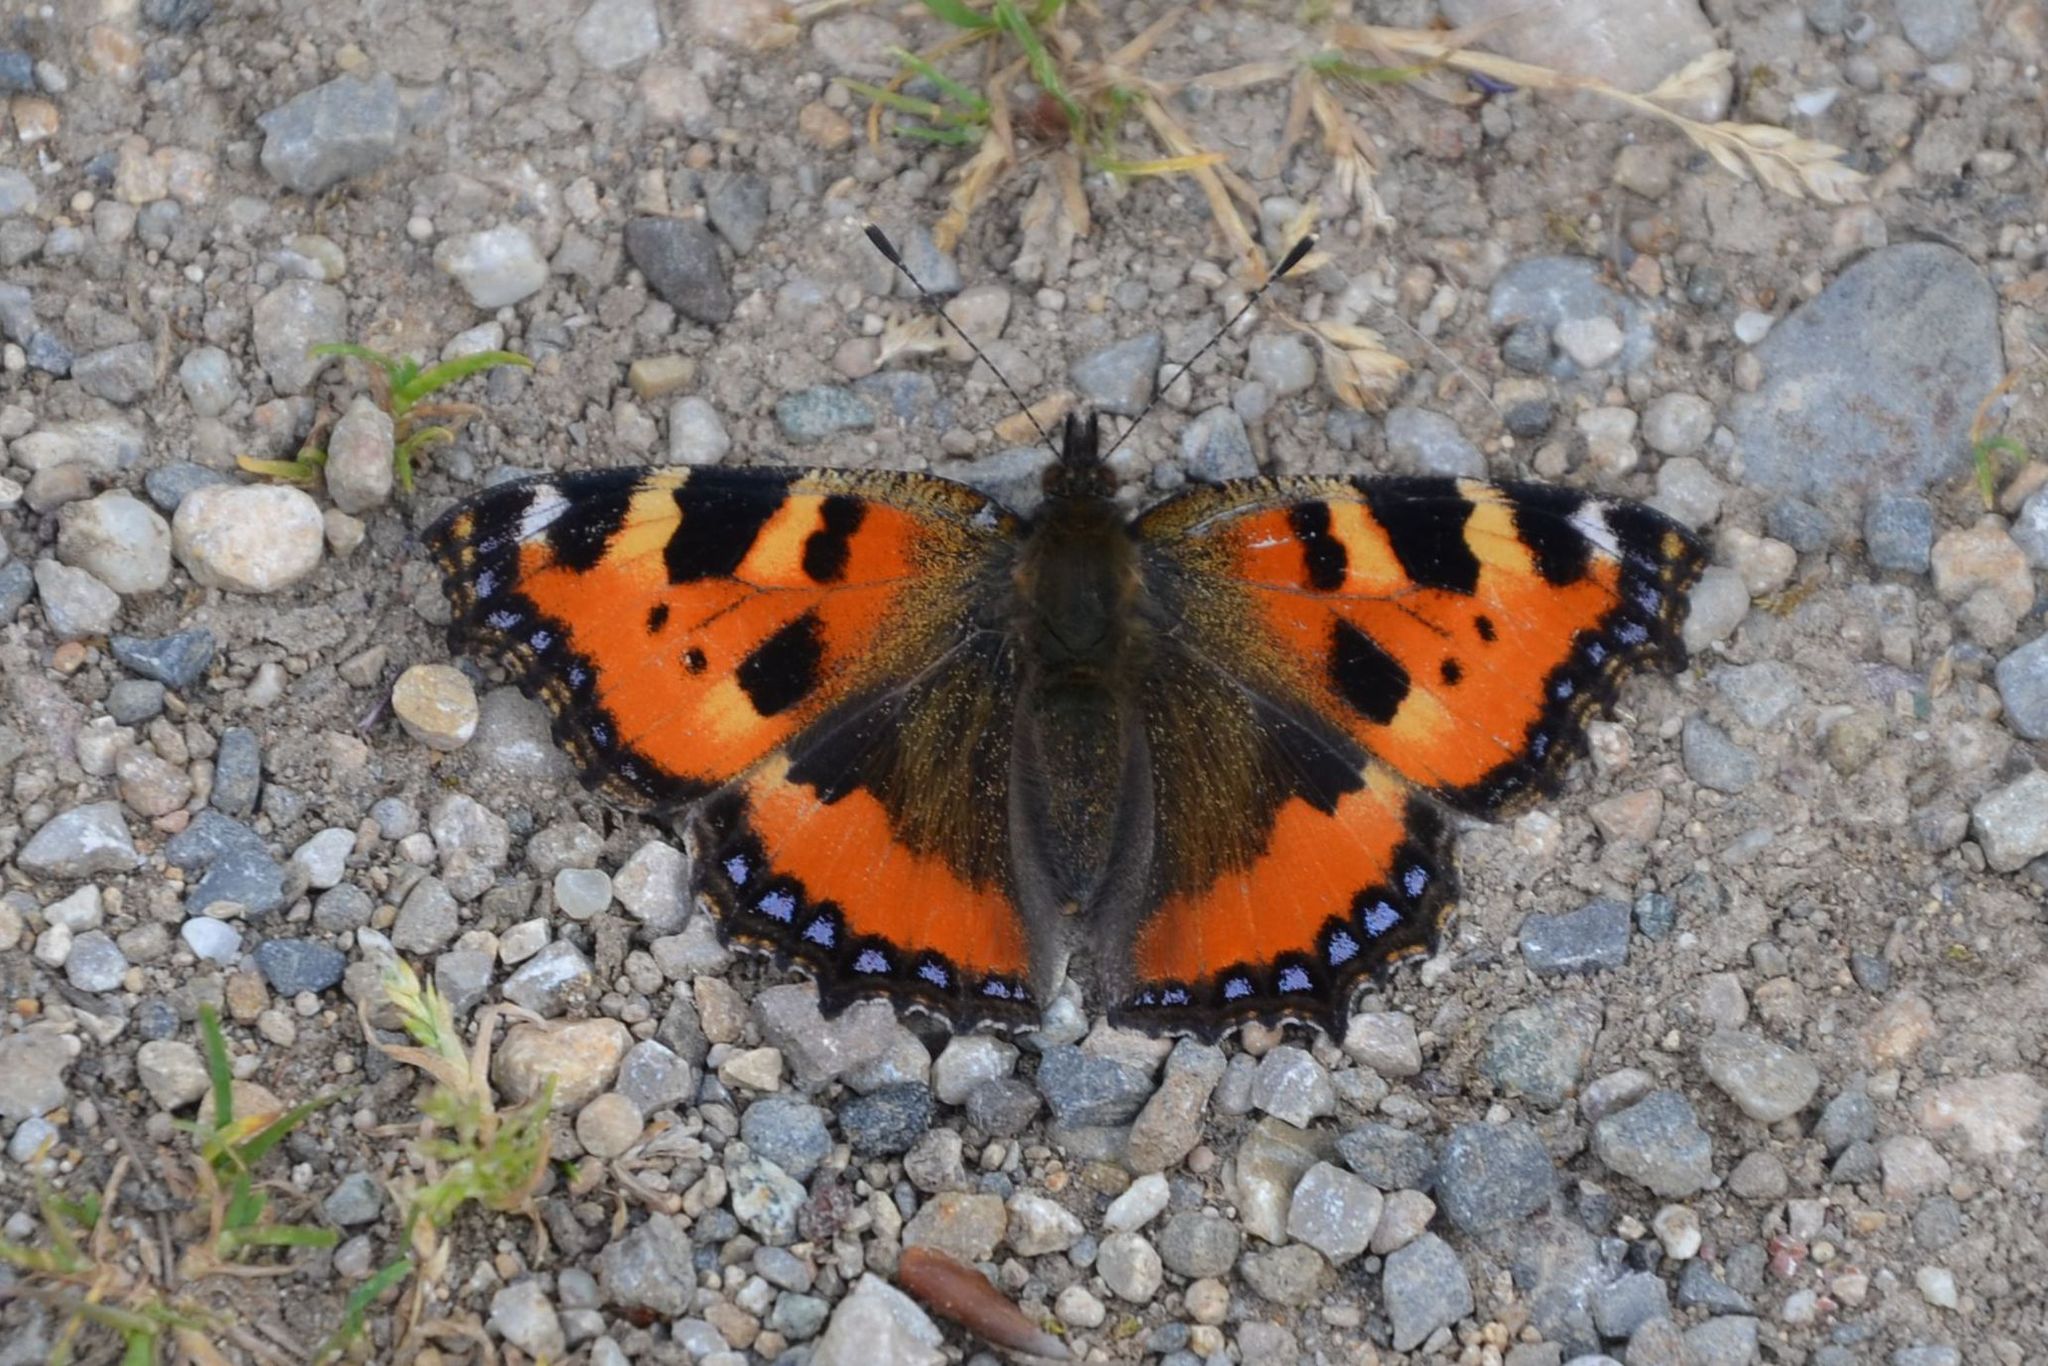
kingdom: Animalia
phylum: Arthropoda
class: Insecta
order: Lepidoptera
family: Nymphalidae
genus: Aglais
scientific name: Aglais urticae
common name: Small tortoiseshell
